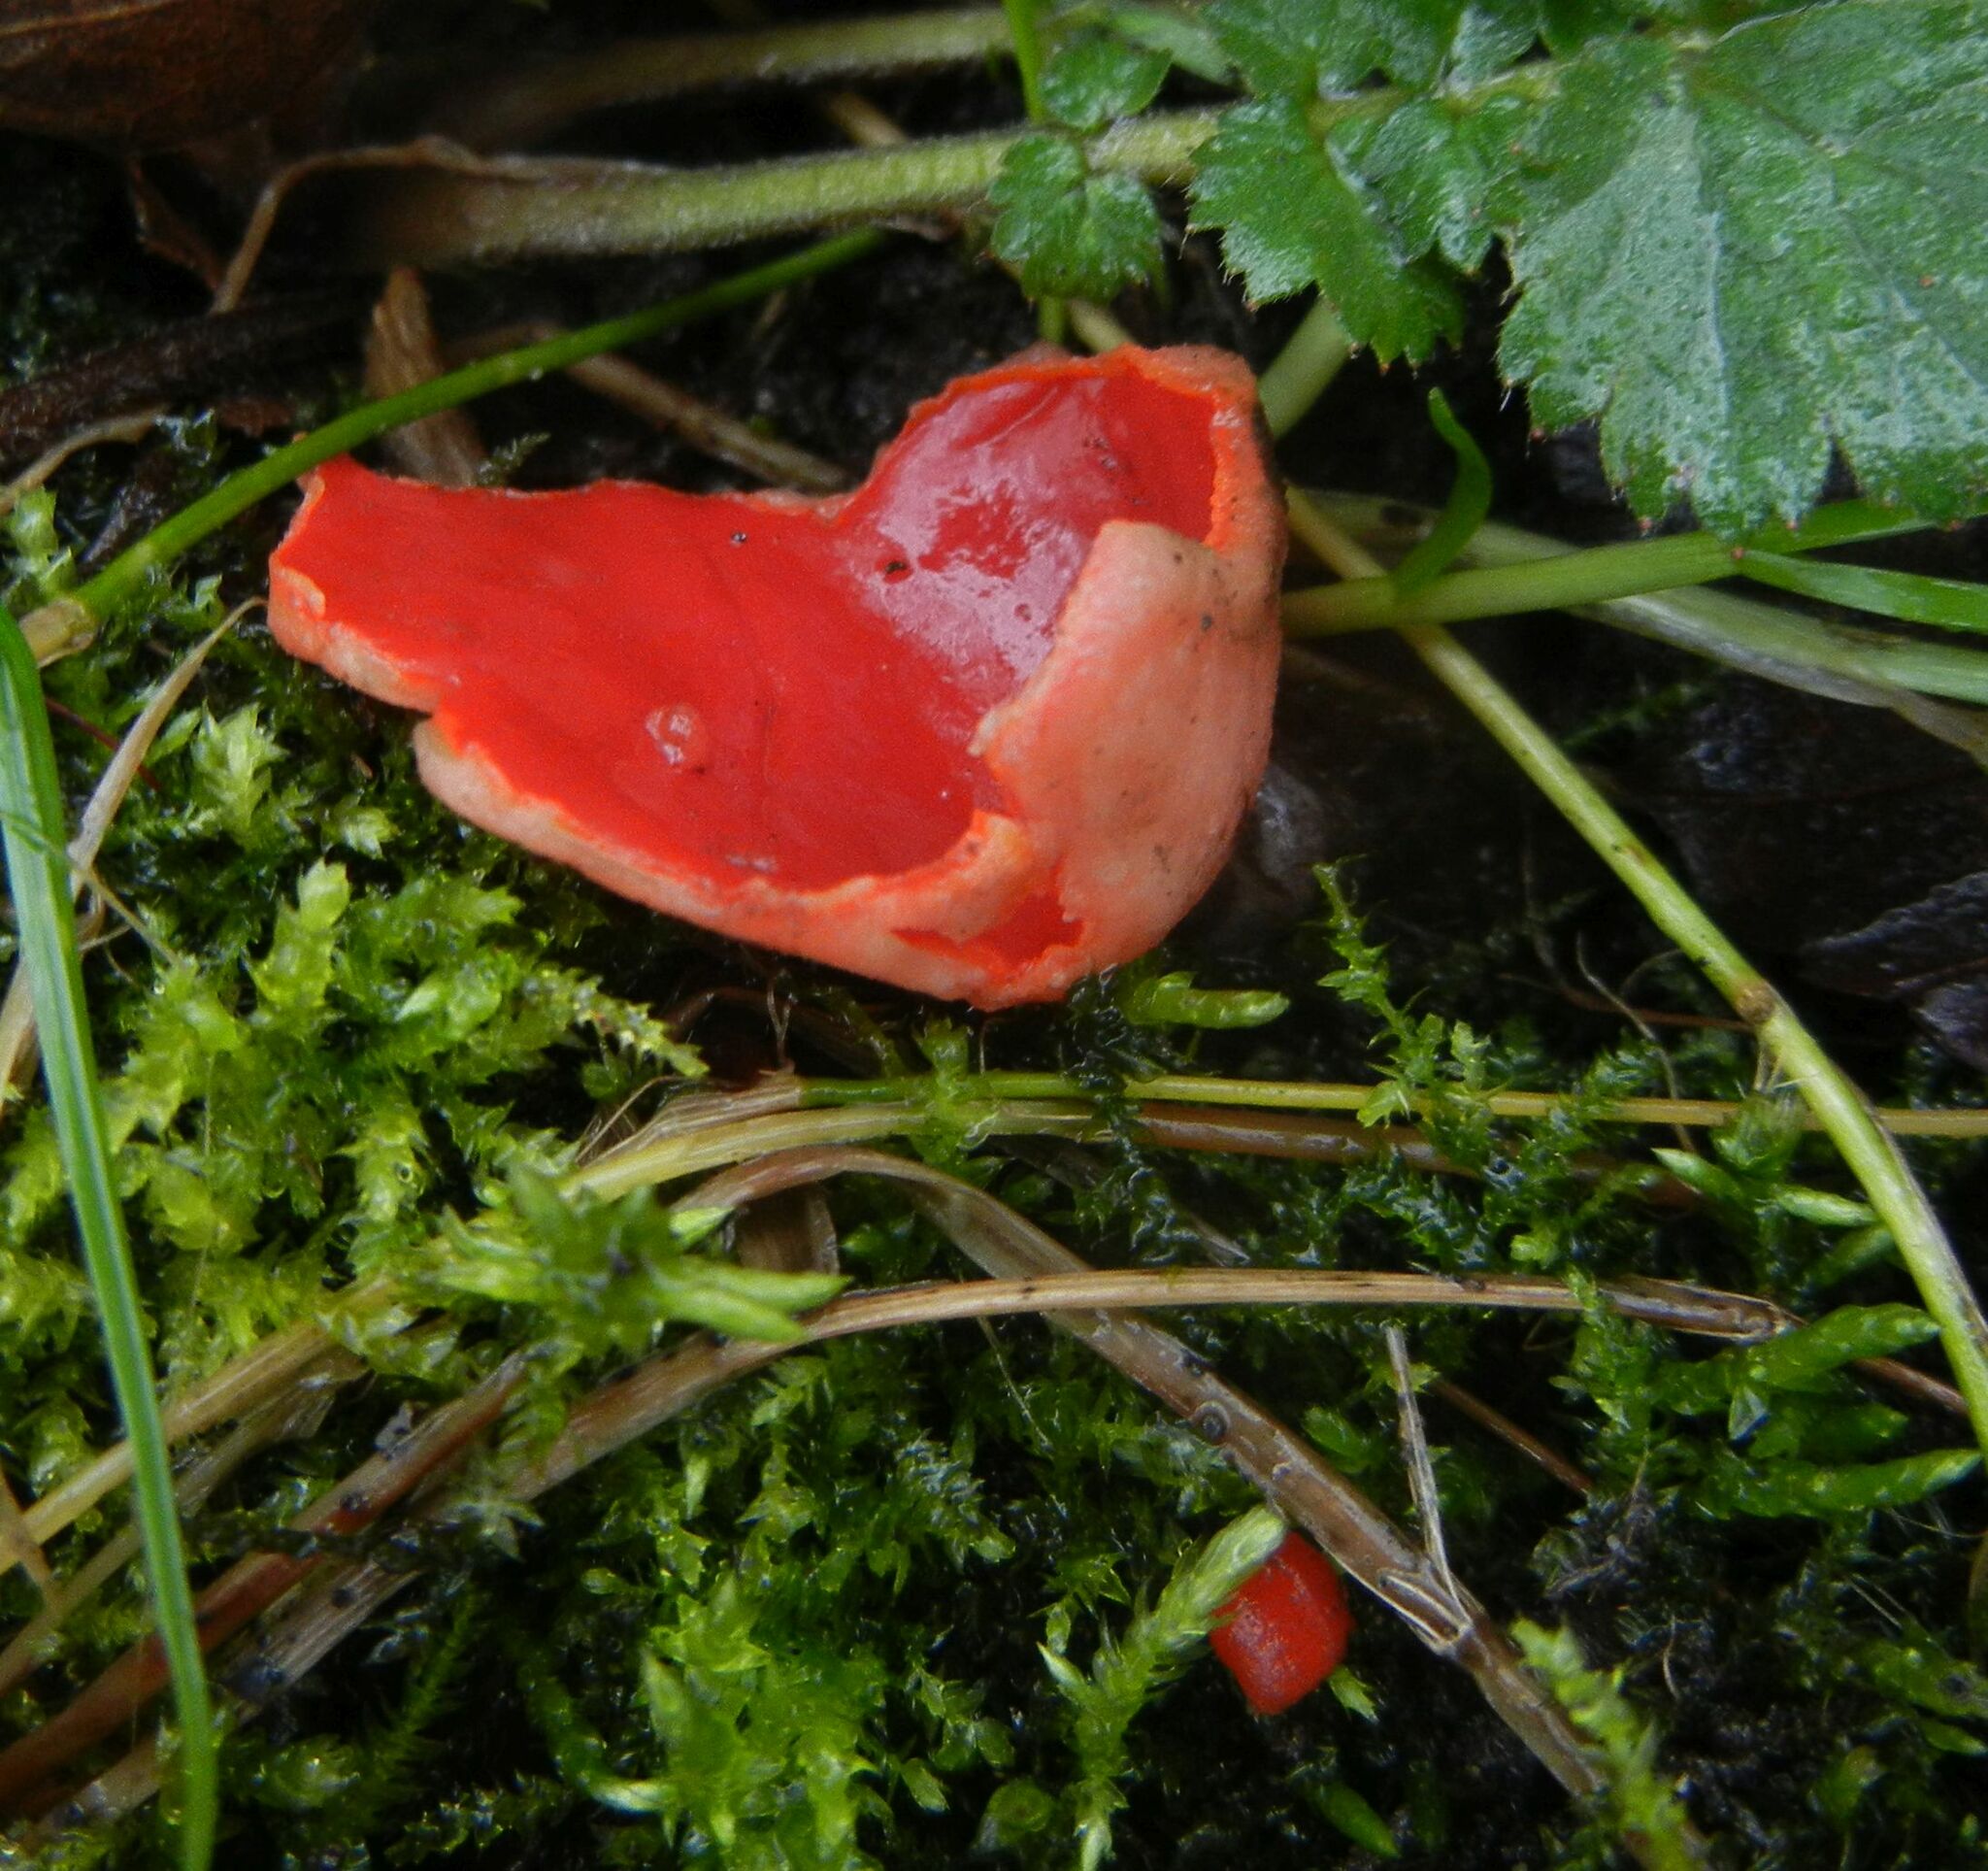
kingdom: Fungi
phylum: Ascomycota
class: Pezizomycetes
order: Pezizales
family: Sarcoscyphaceae
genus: Sarcoscypha
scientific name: Sarcoscypha
